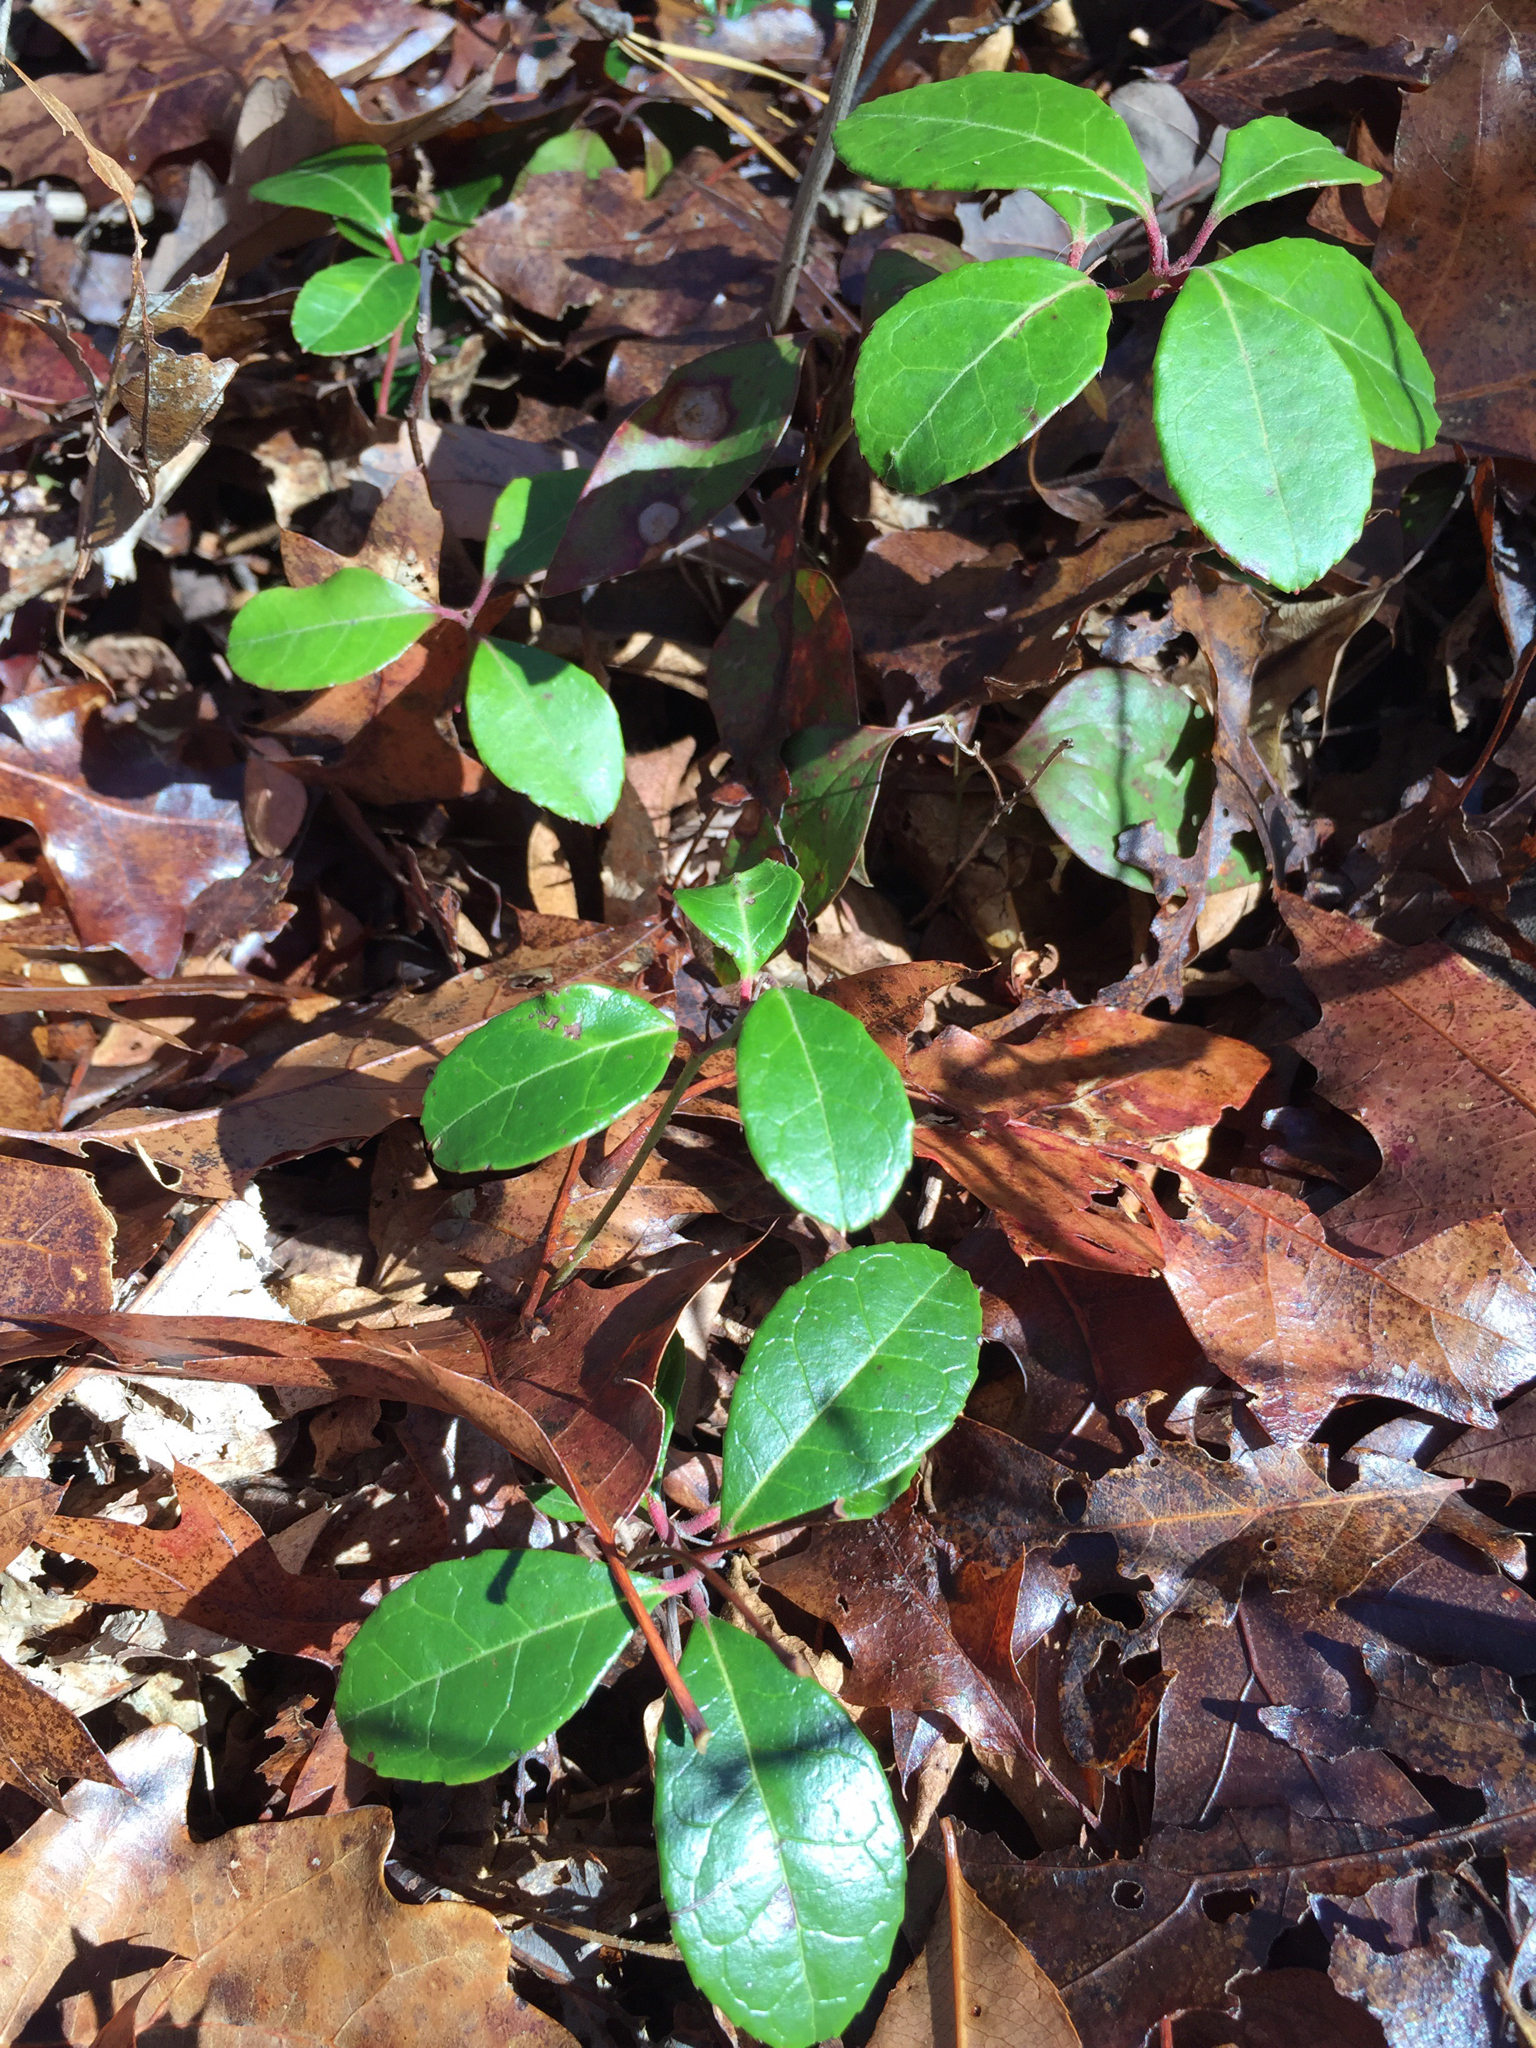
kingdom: Plantae
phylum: Tracheophyta
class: Magnoliopsida
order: Ericales
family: Ericaceae
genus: Gaultheria
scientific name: Gaultheria procumbens
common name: Checkerberry
